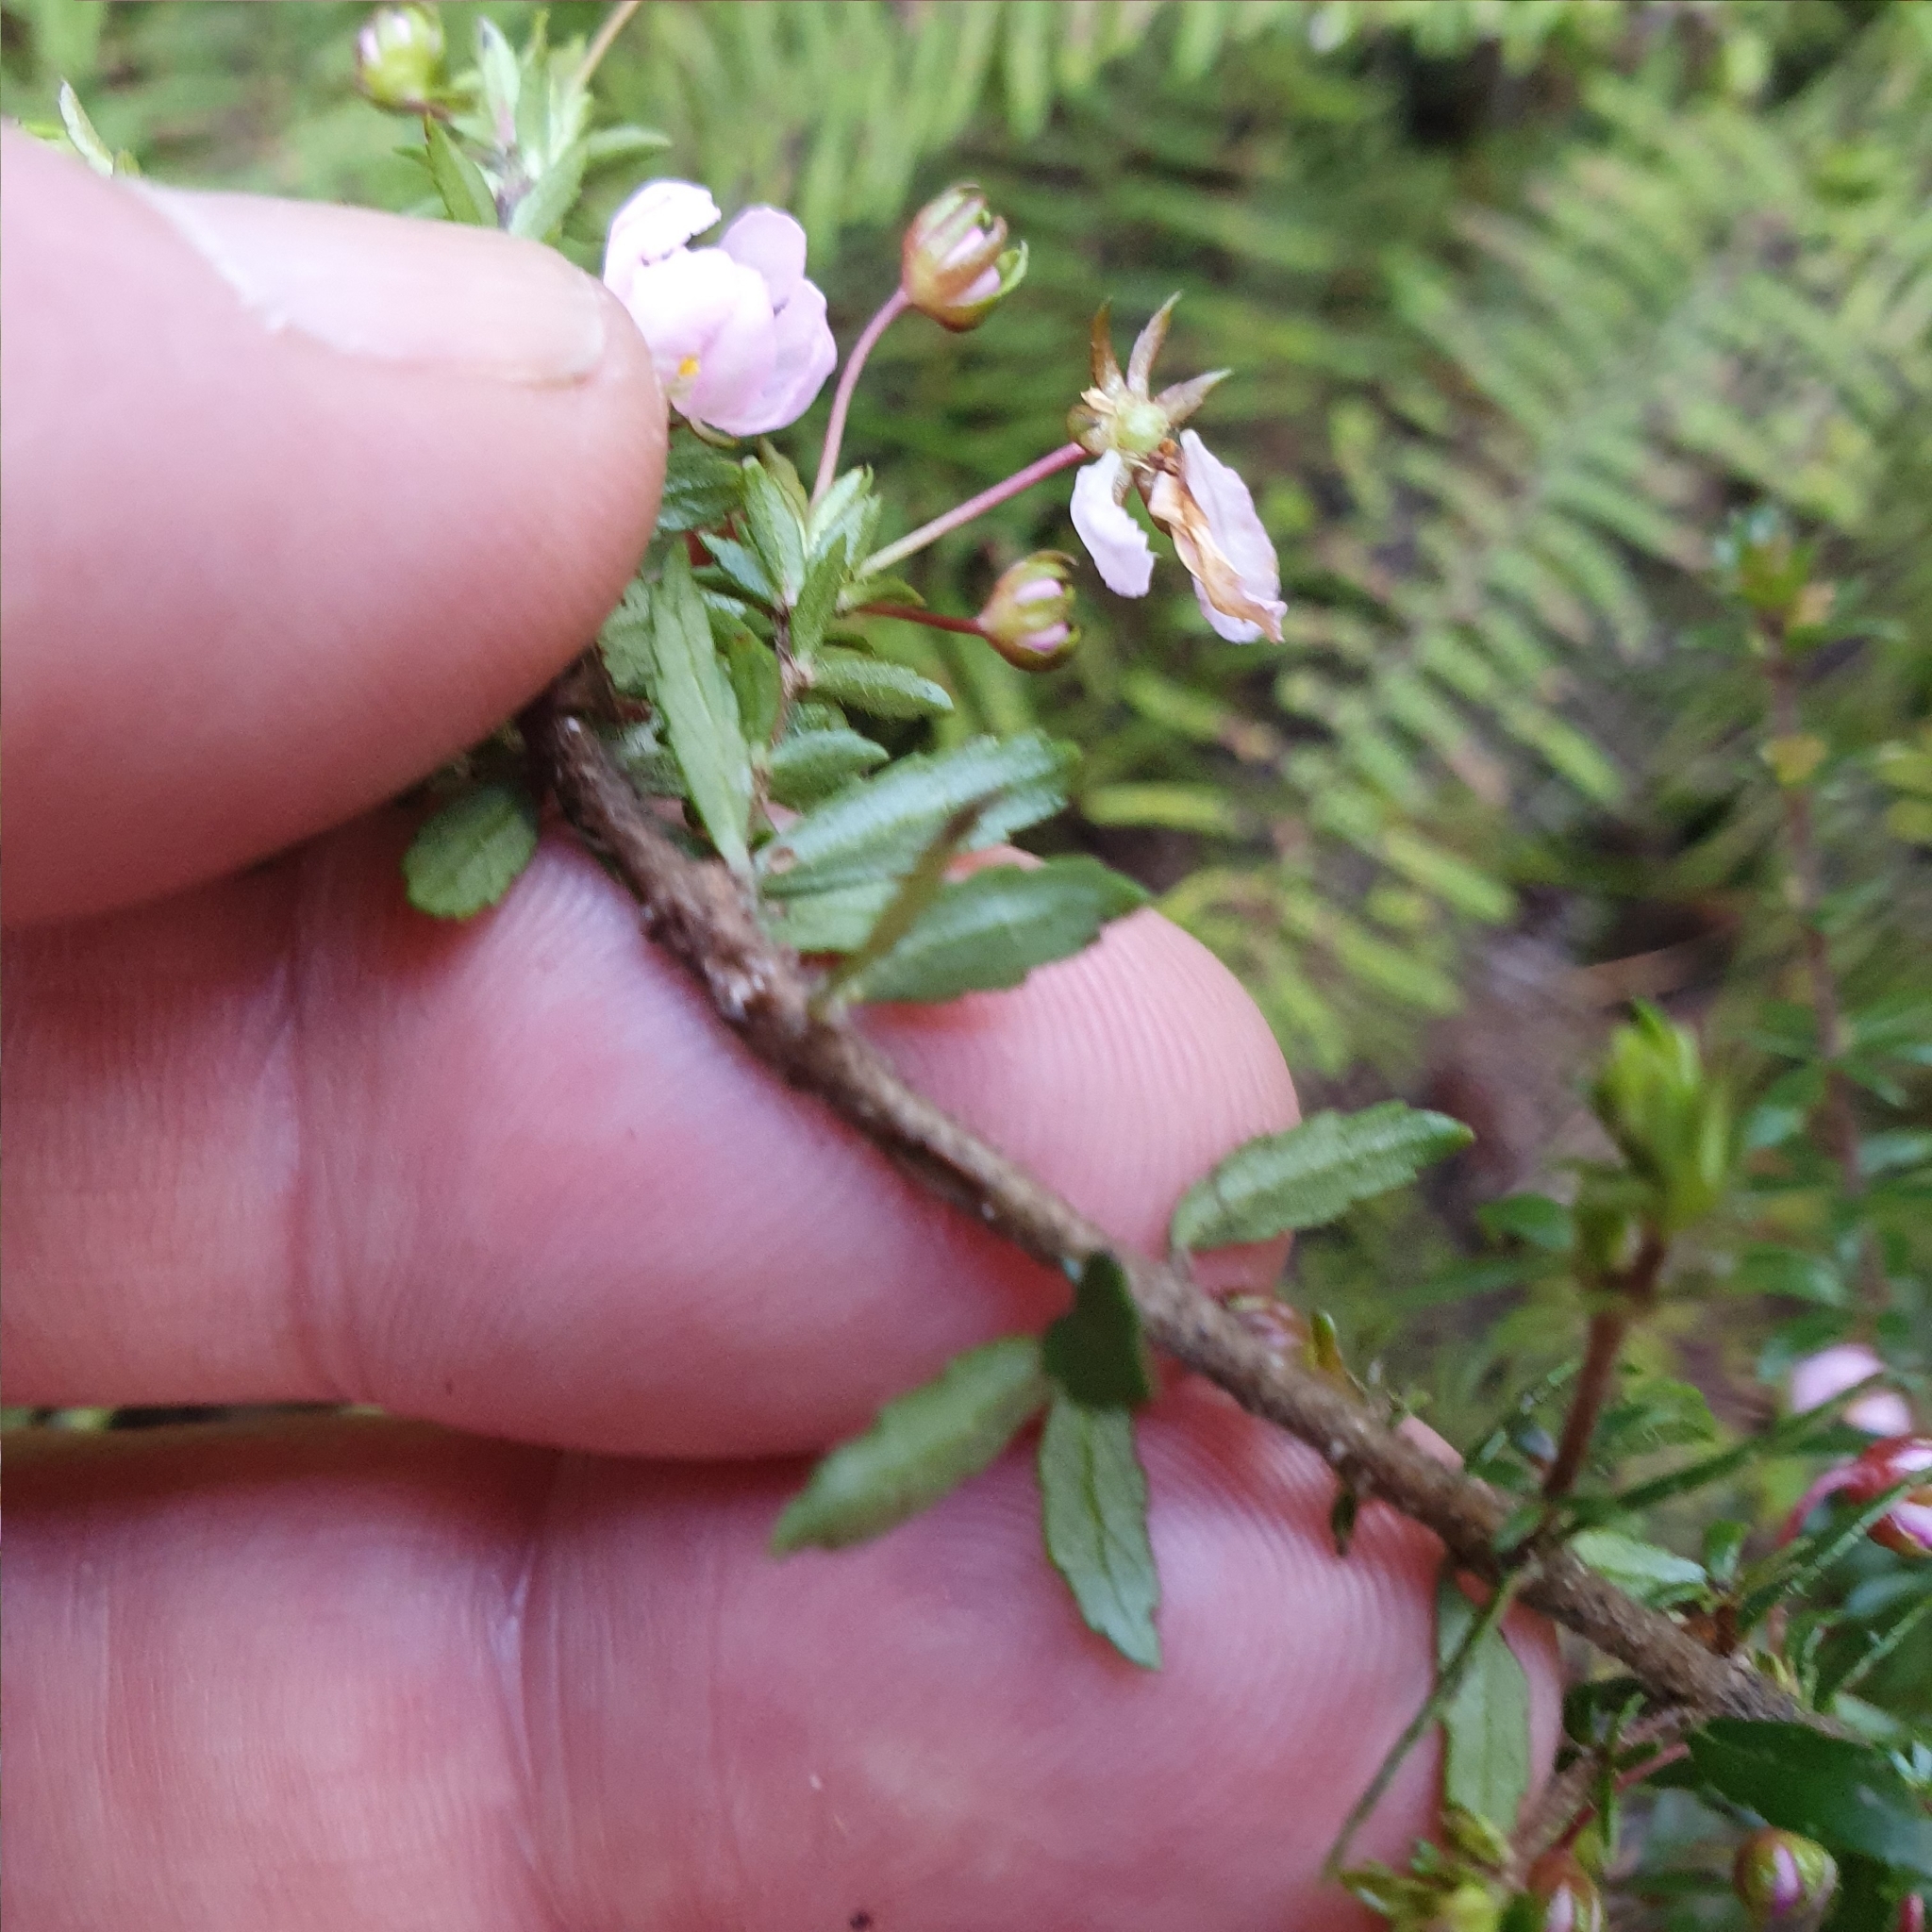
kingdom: Plantae
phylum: Tracheophyta
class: Magnoliopsida
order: Oxalidales
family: Cunoniaceae
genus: Bauera
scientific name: Bauera rubioides
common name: River-rose
